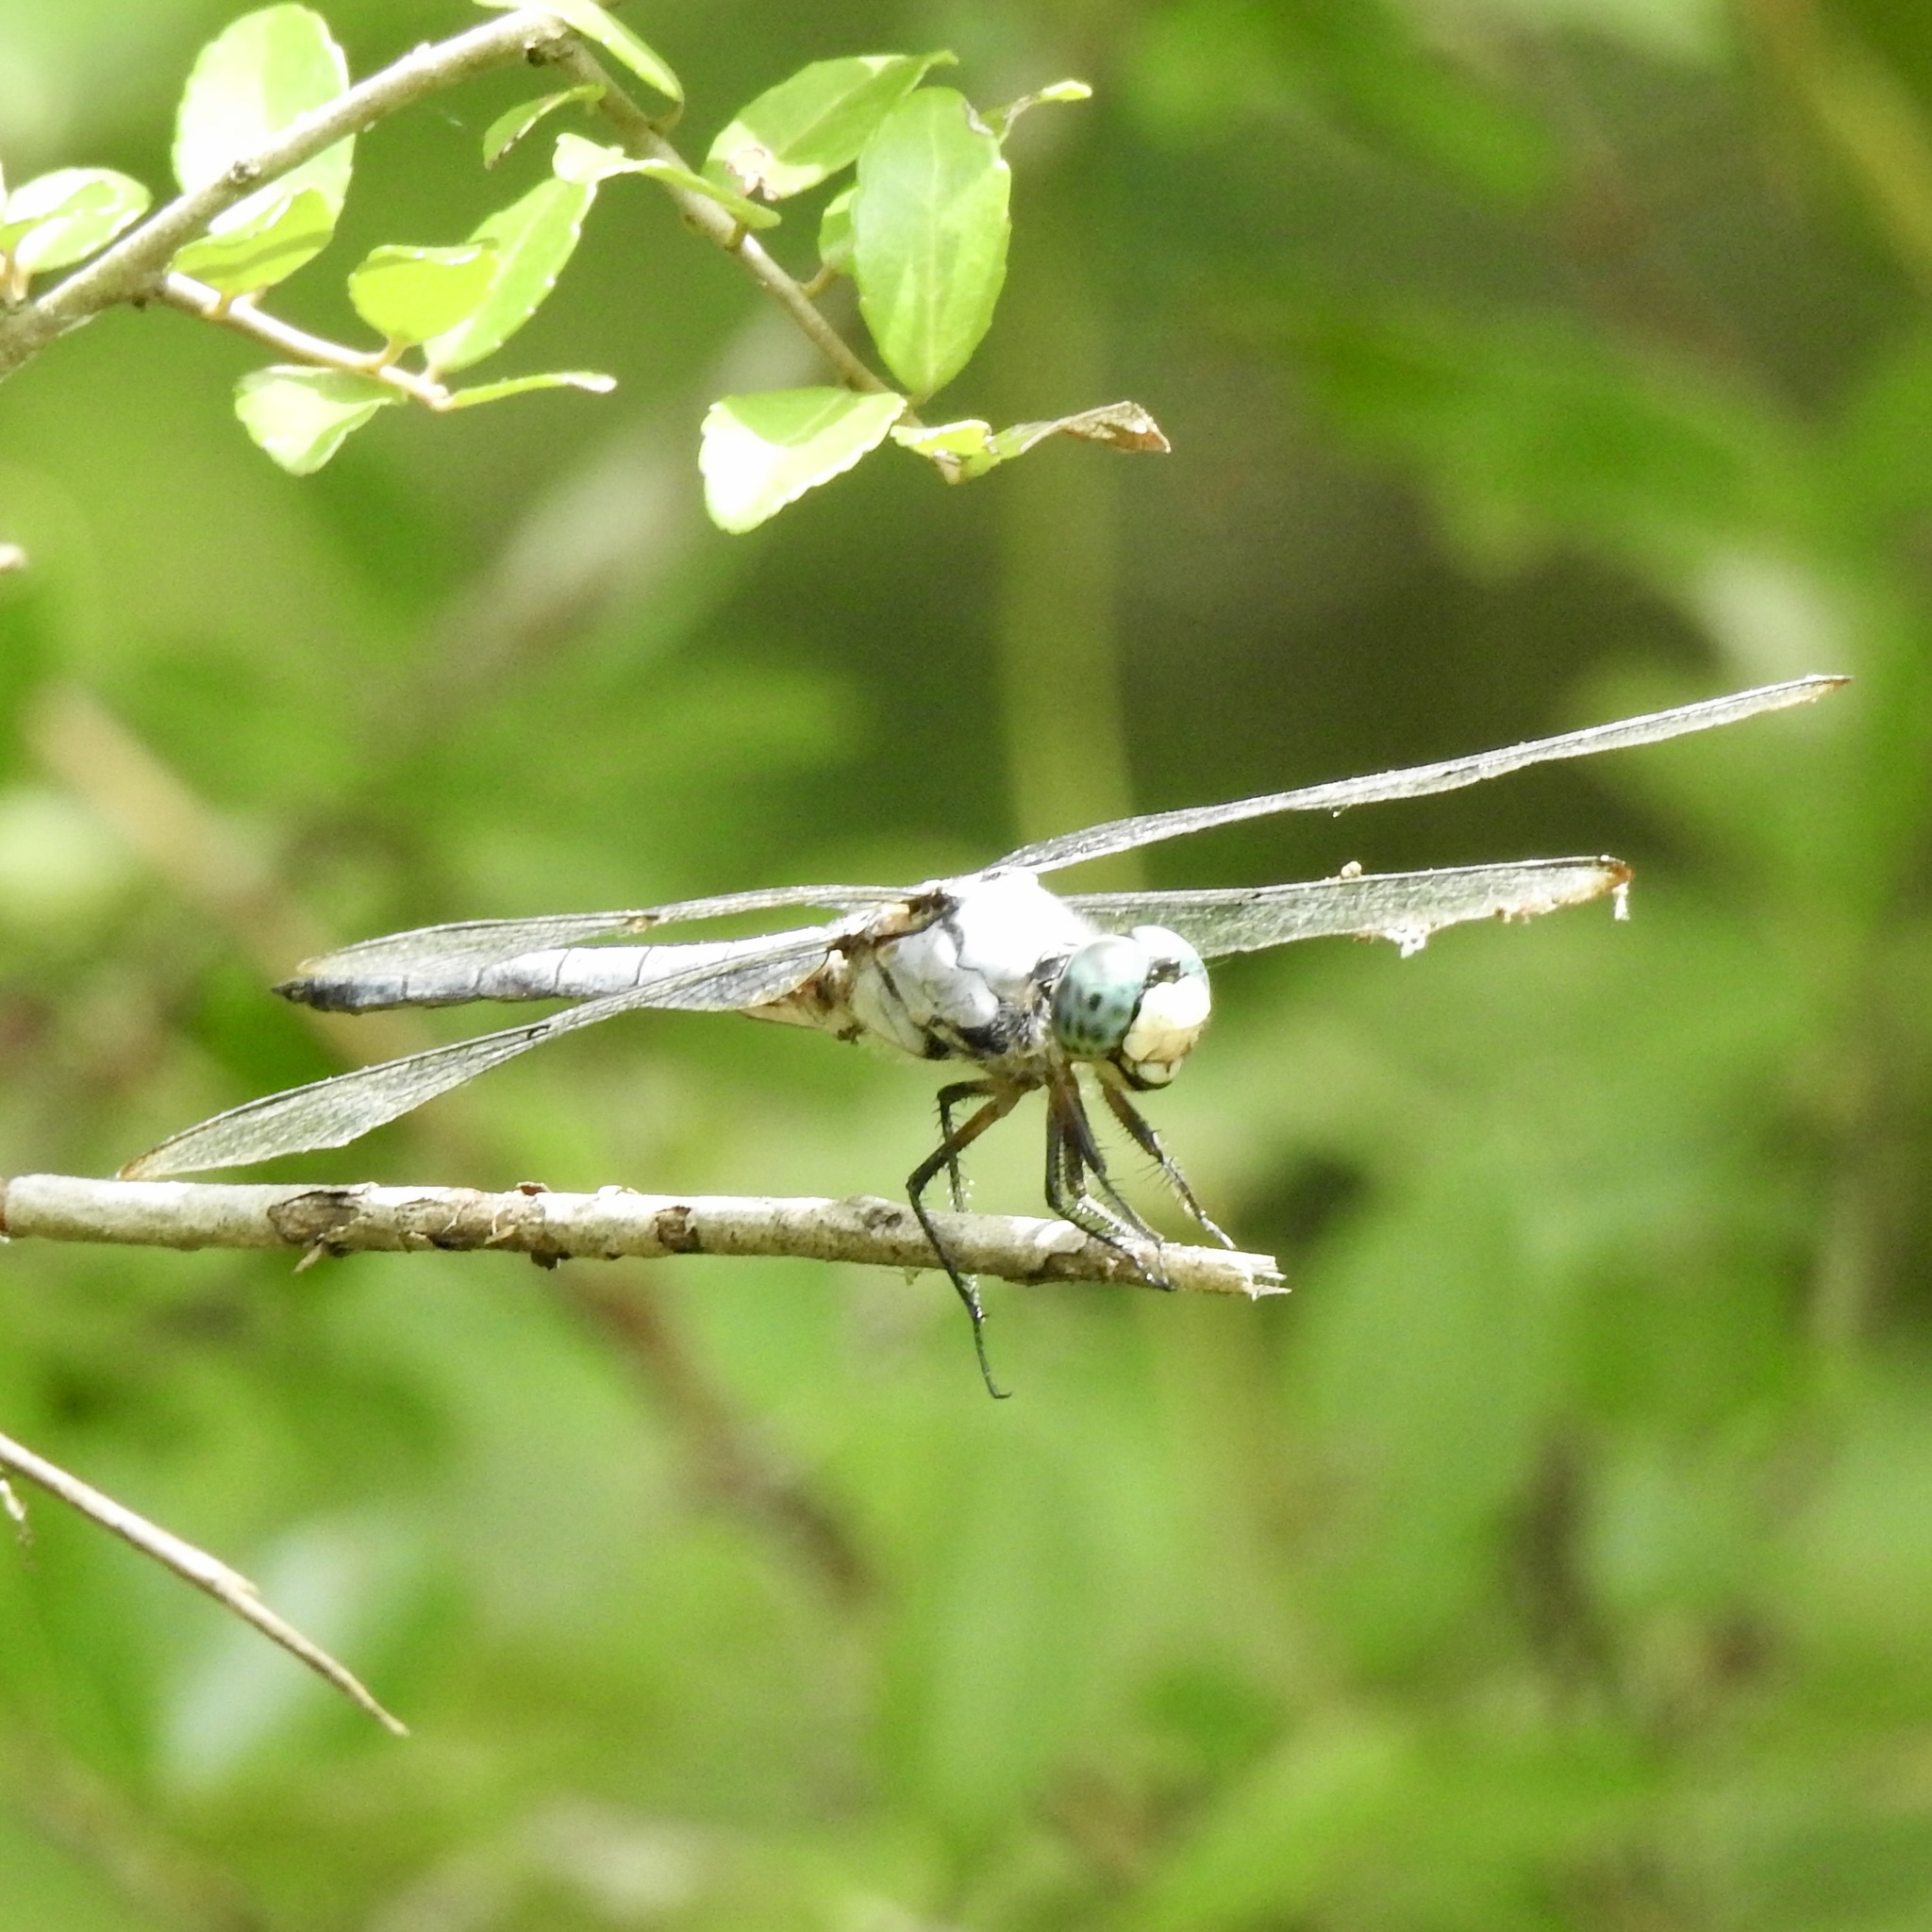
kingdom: Animalia
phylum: Arthropoda
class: Insecta
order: Odonata
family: Libellulidae
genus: Libellula
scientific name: Libellula vibrans
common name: Great blue skimmer
